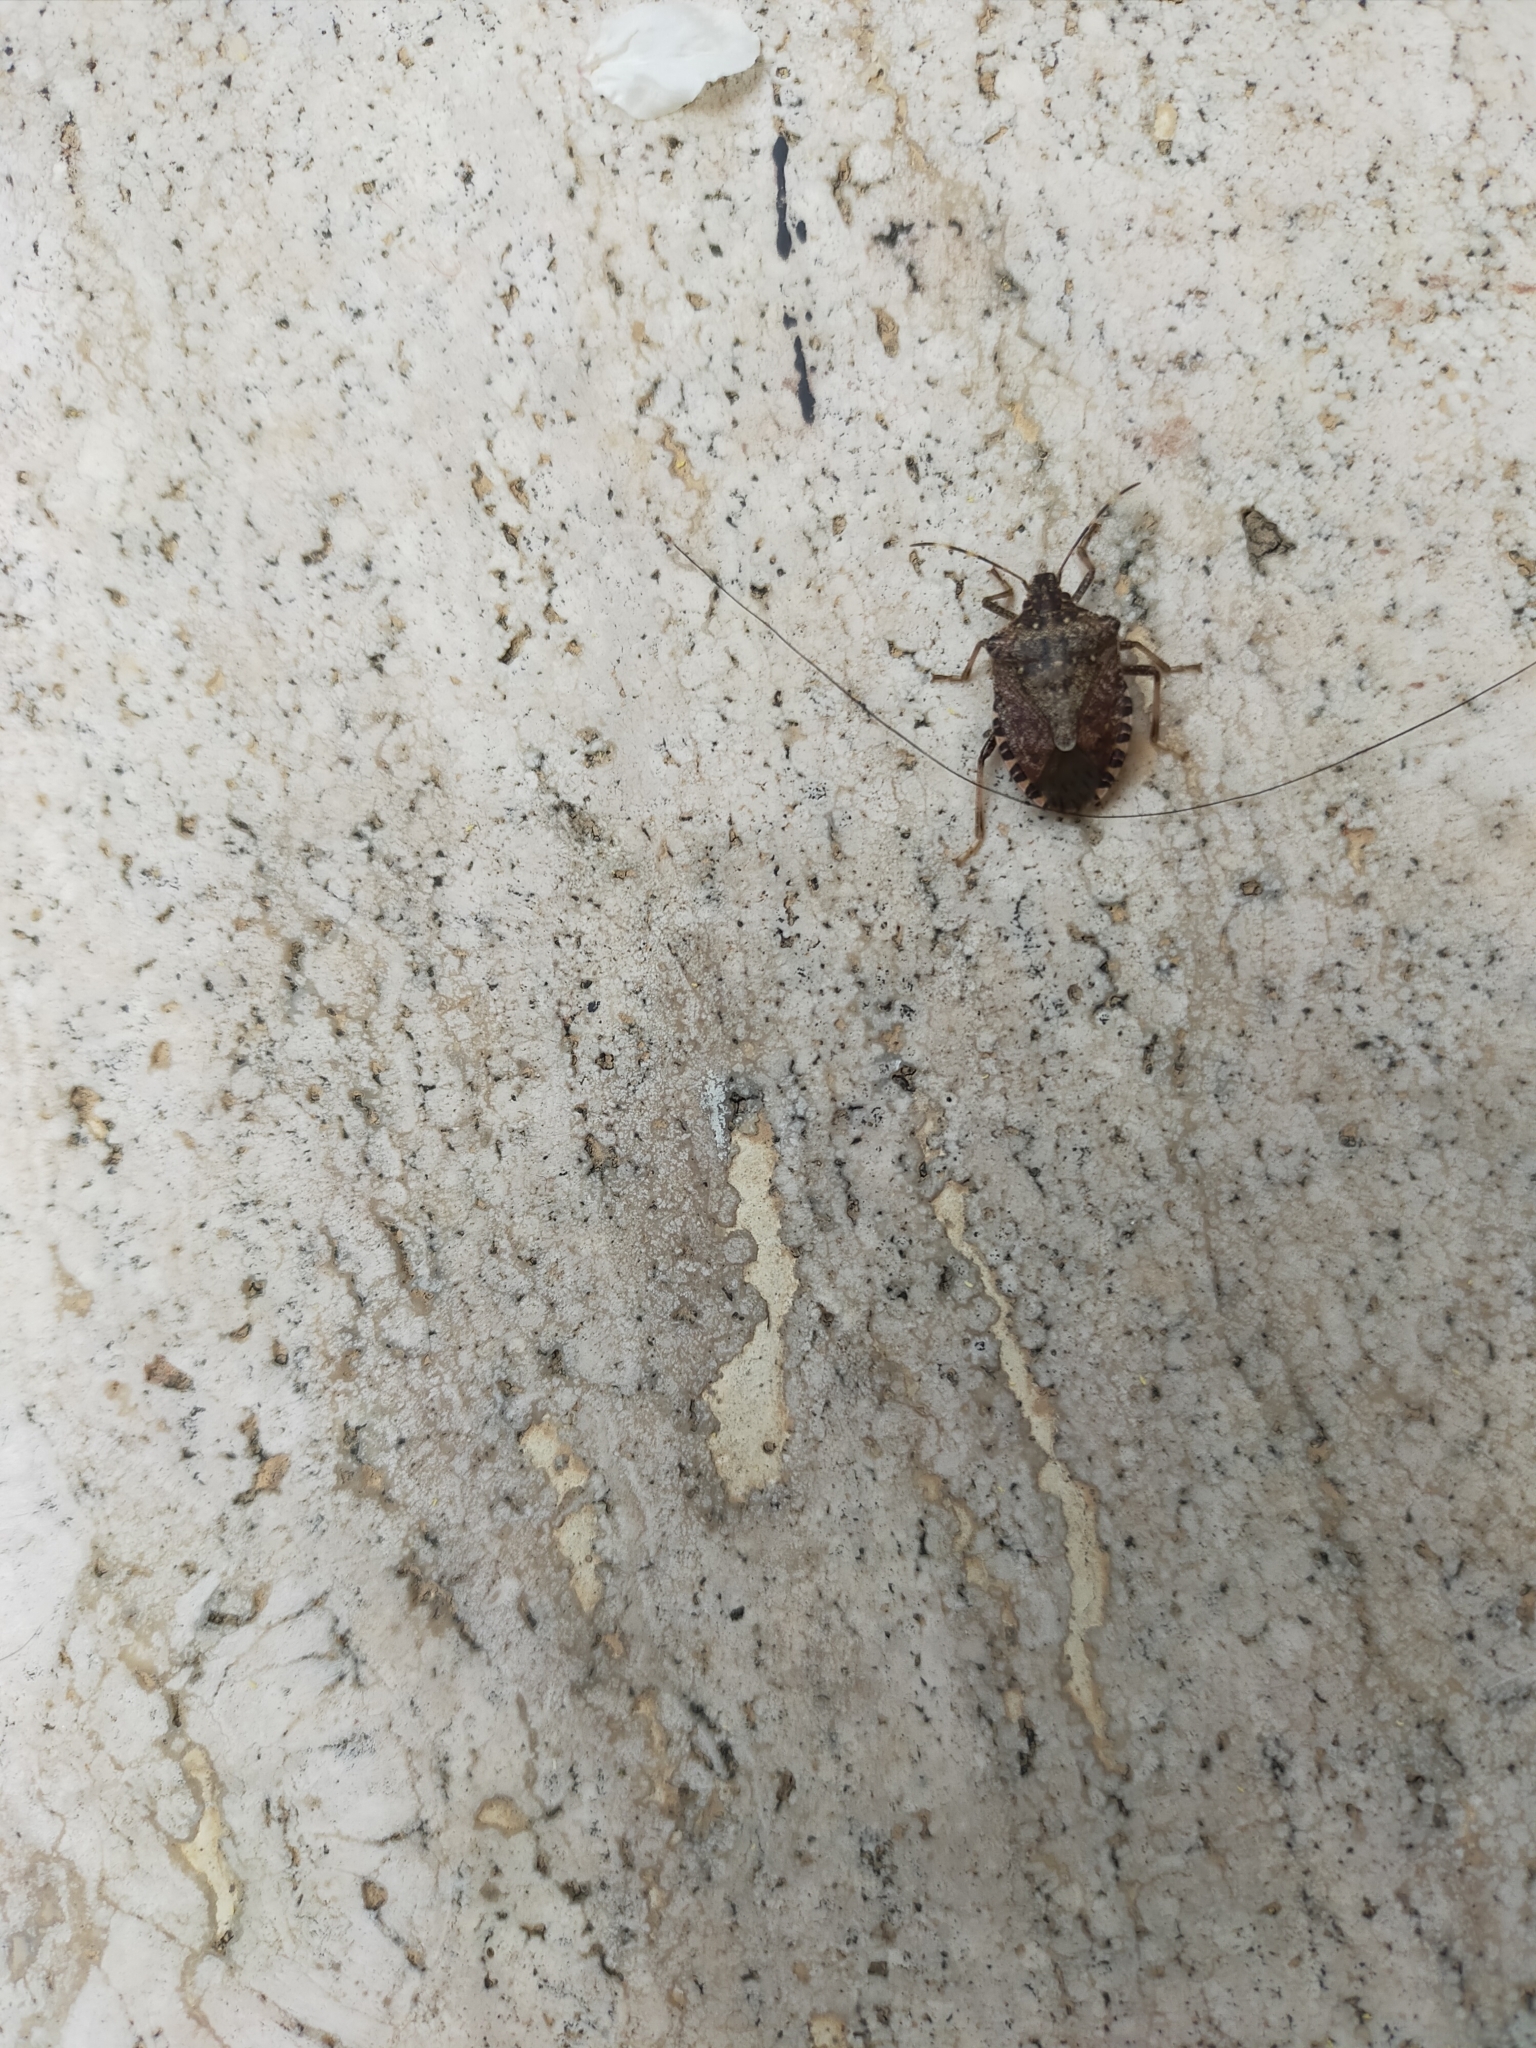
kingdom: Animalia
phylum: Arthropoda
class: Insecta
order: Hemiptera
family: Pentatomidae
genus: Halyomorpha
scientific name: Halyomorpha halys
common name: Brown marmorated stink bug
